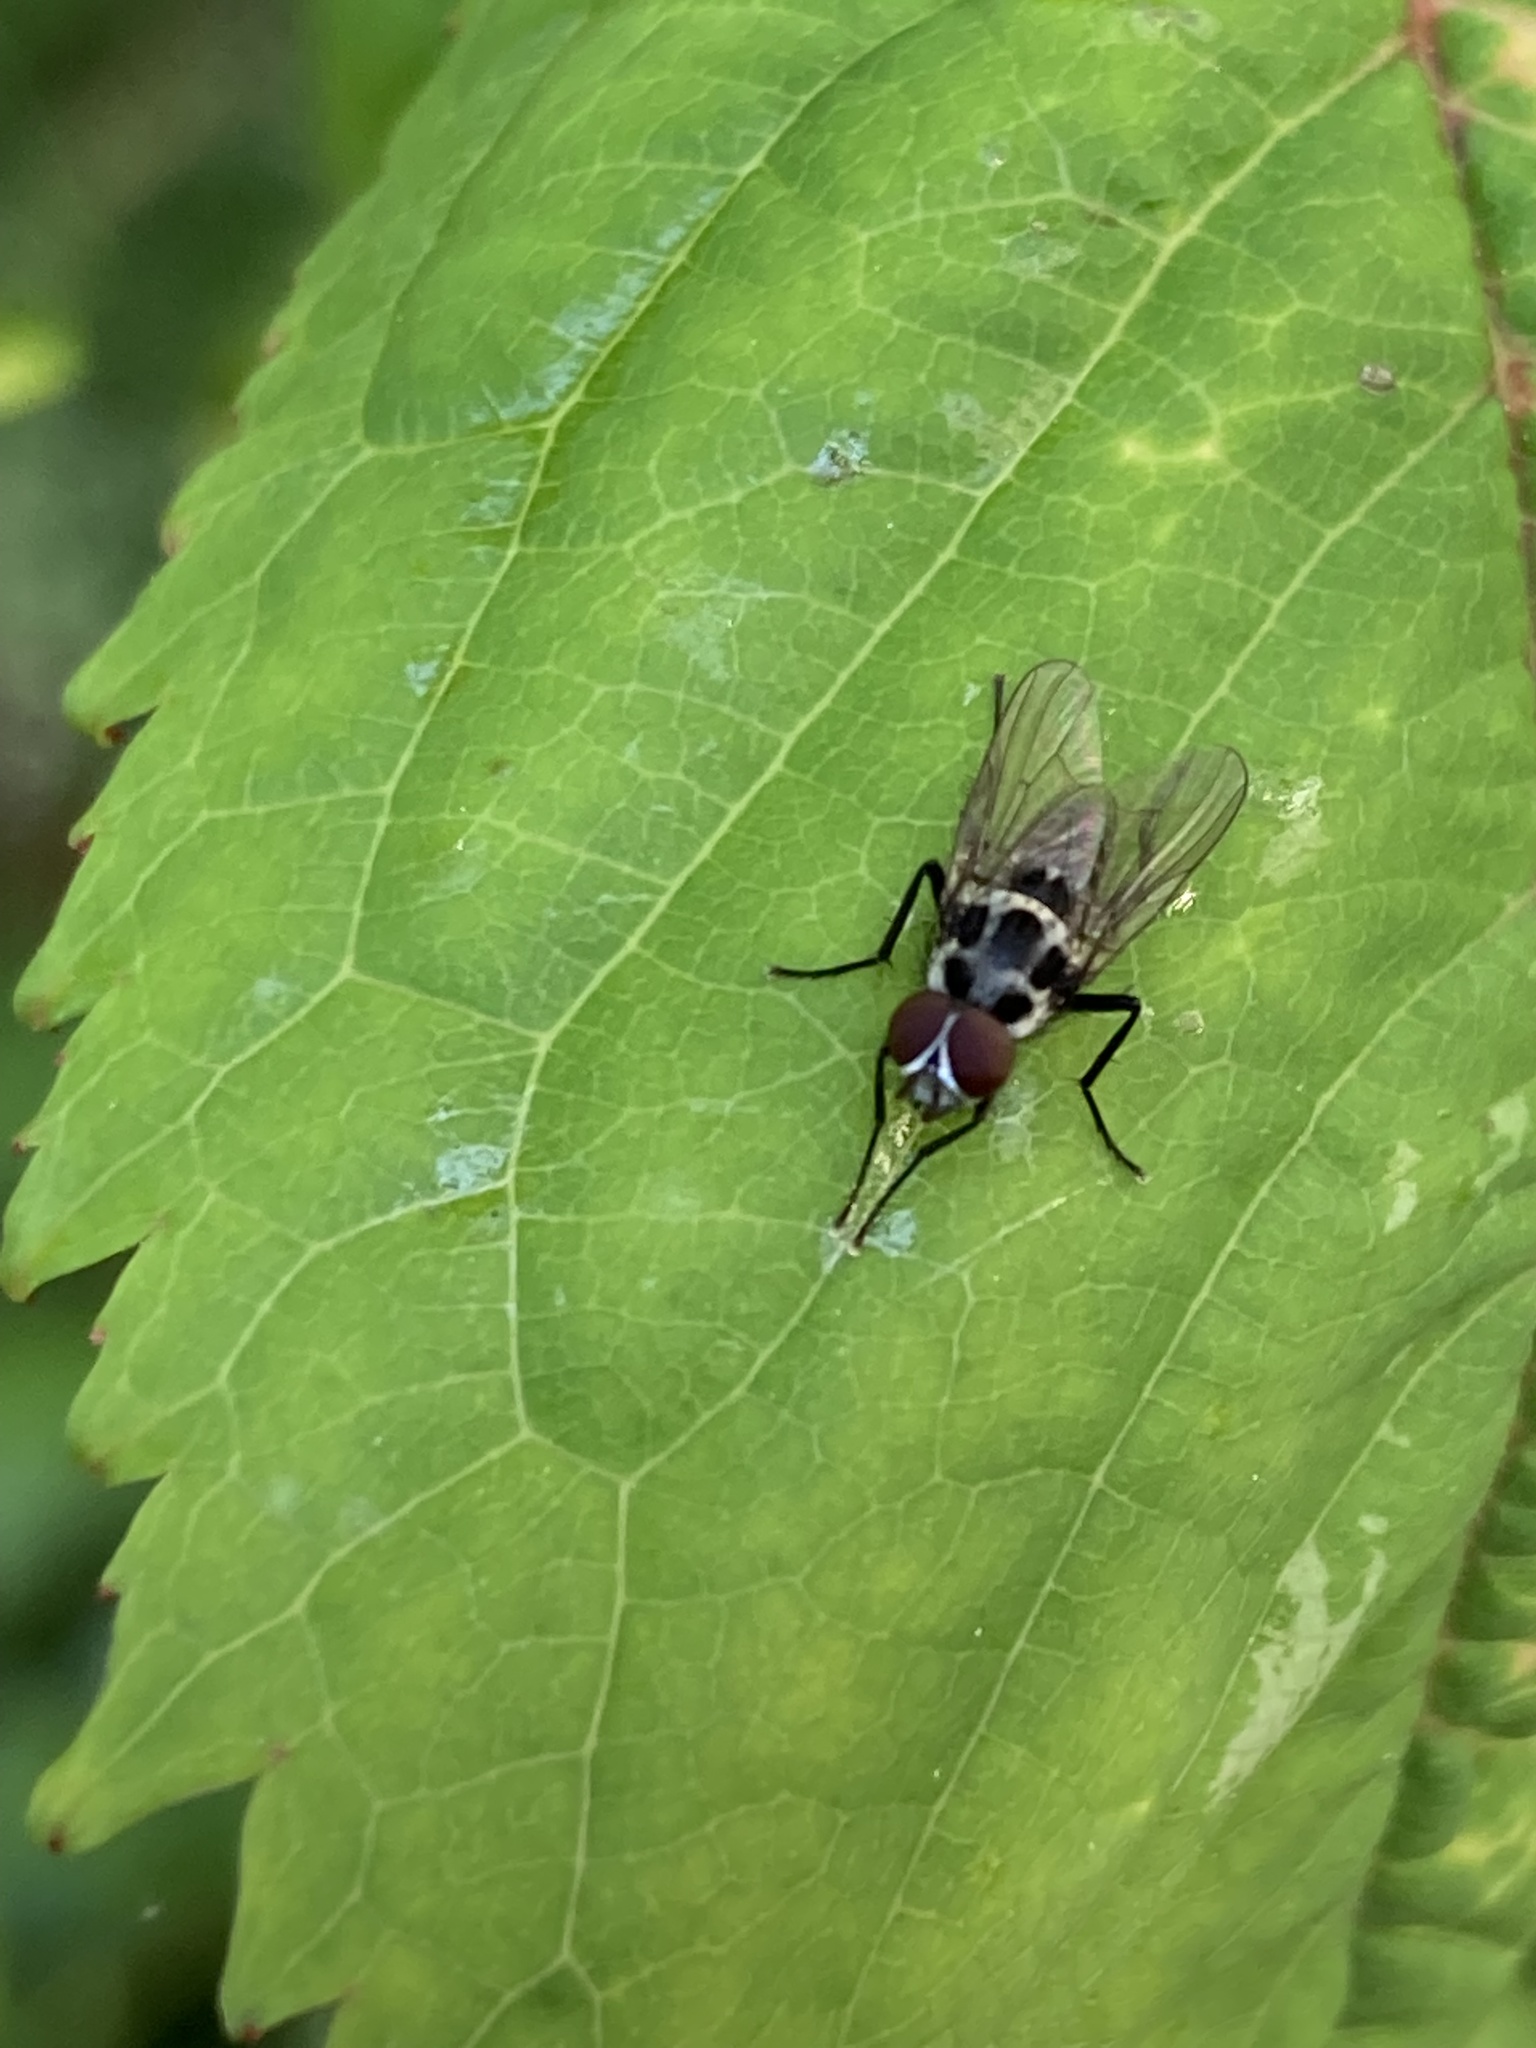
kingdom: Animalia
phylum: Arthropoda
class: Insecta
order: Diptera
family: Anthomyiidae
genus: Anthomyia
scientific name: Anthomyia pluvialis
